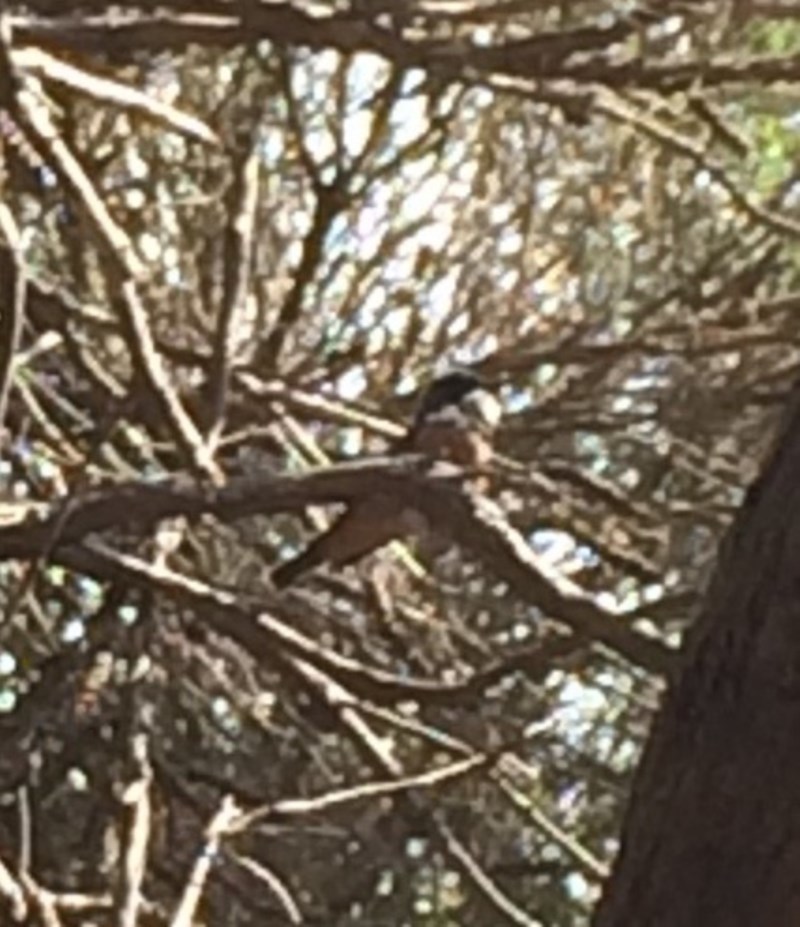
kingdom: Animalia
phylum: Chordata
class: Aves
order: Passeriformes
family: Pachycephalidae
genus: Pachycephala
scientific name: Pachycephala rufiventris
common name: Rufous whistler
